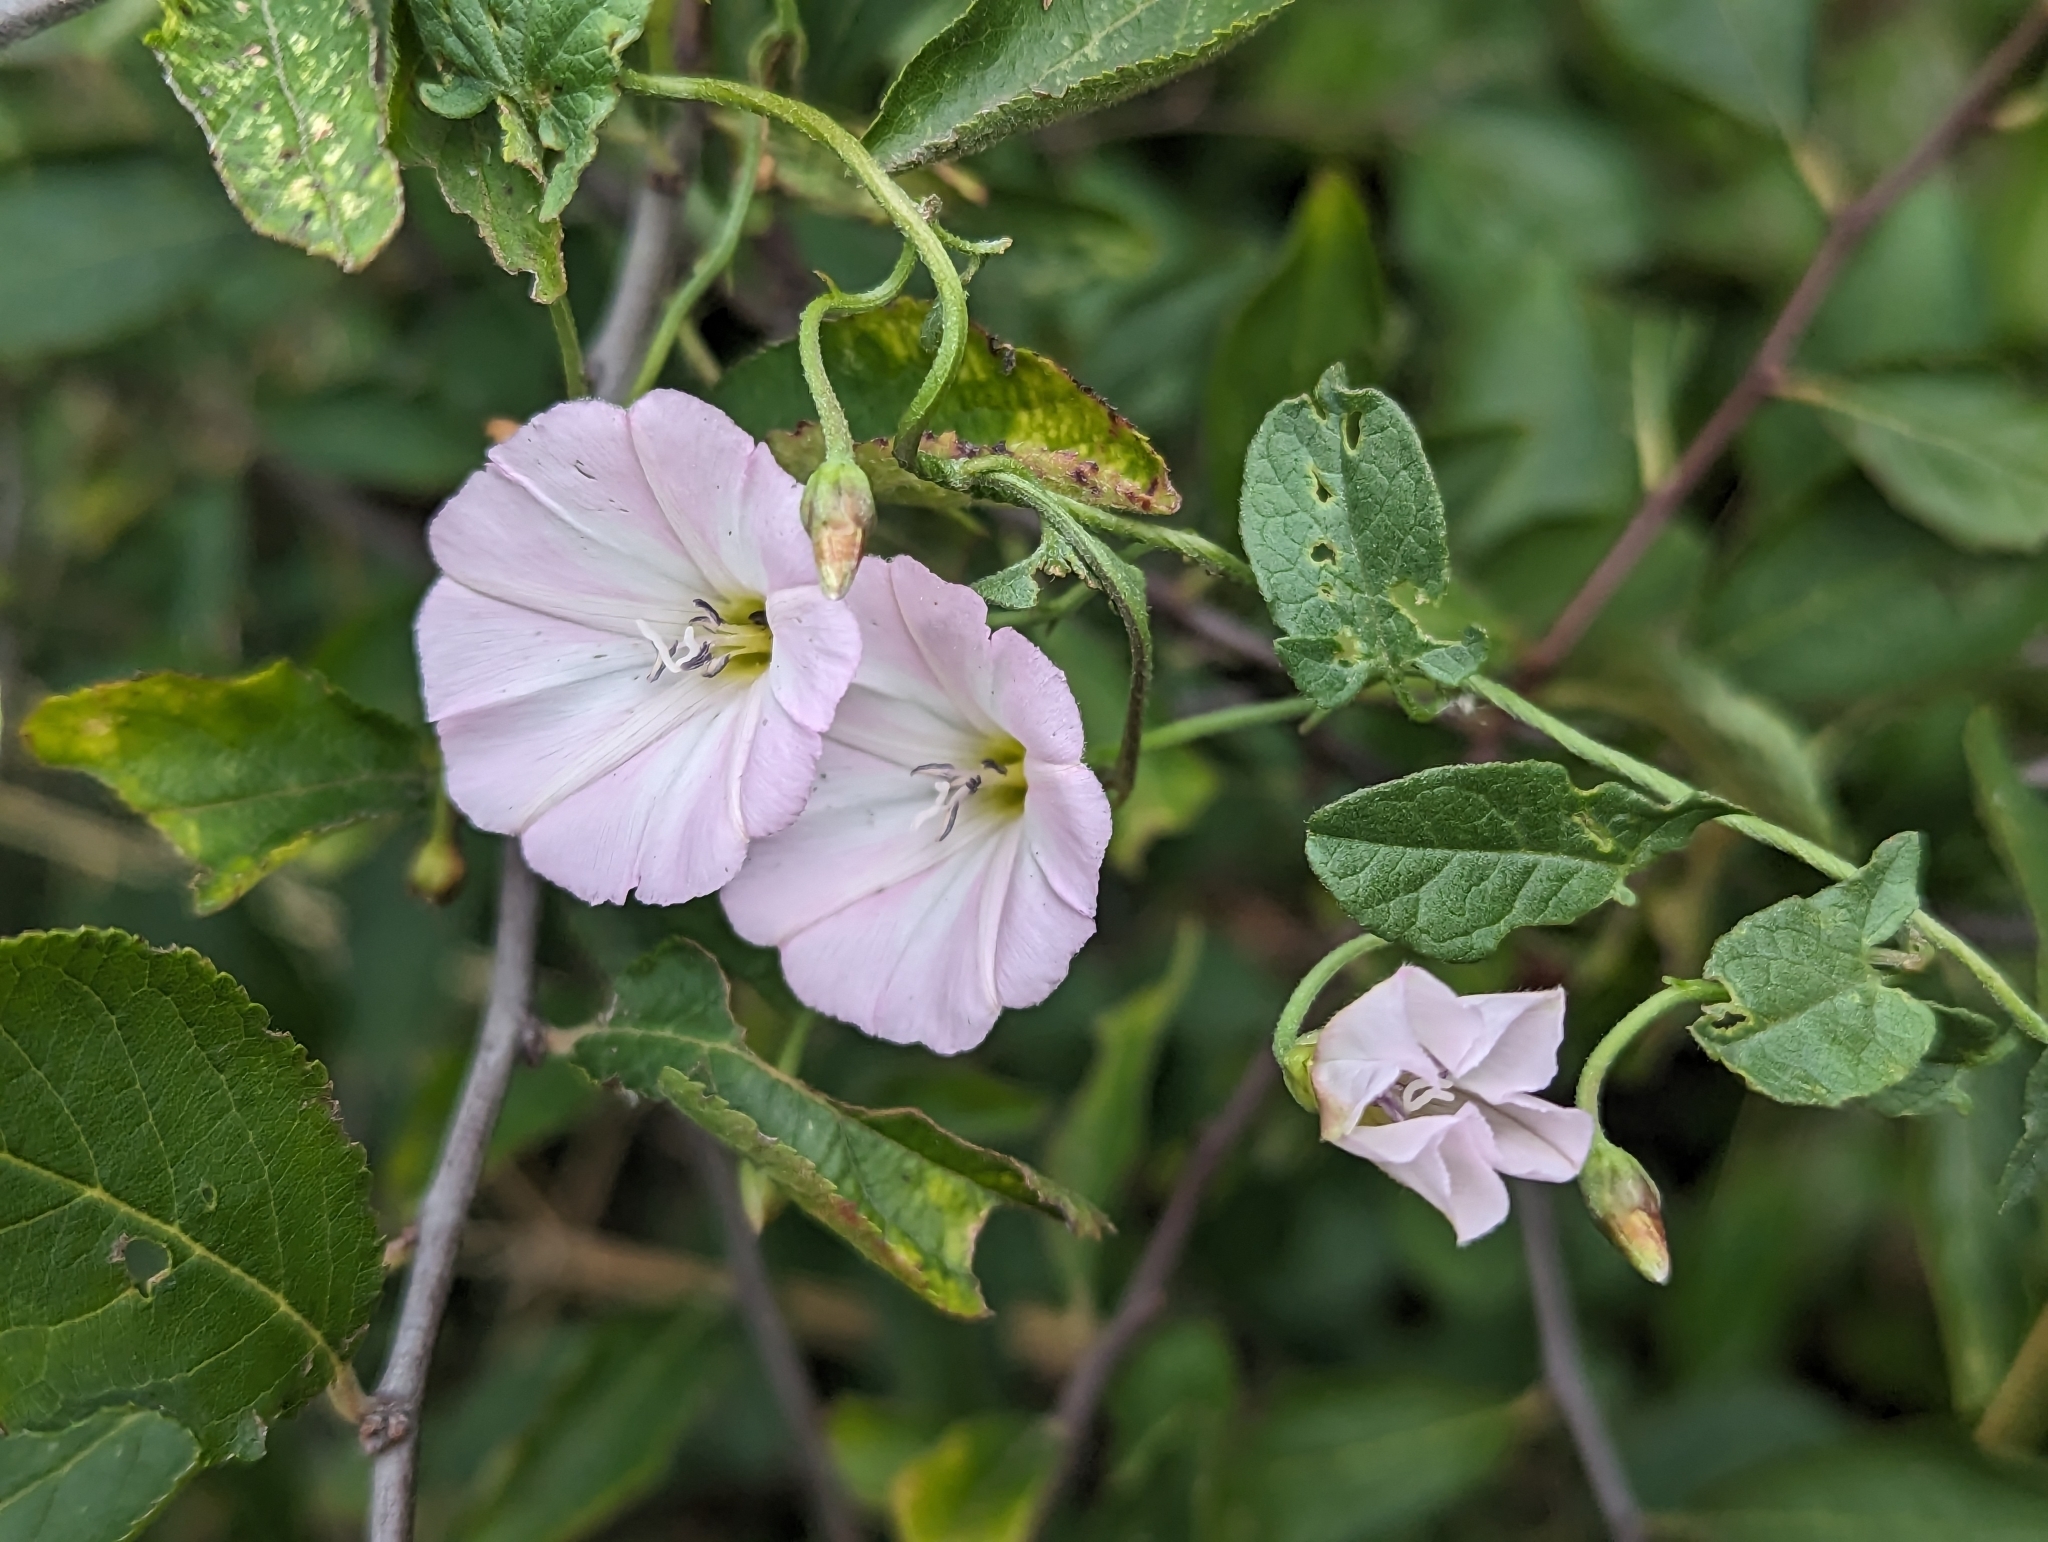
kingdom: Plantae
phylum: Tracheophyta
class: Magnoliopsida
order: Solanales
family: Convolvulaceae
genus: Convolvulus
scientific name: Convolvulus arvensis
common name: Field bindweed
